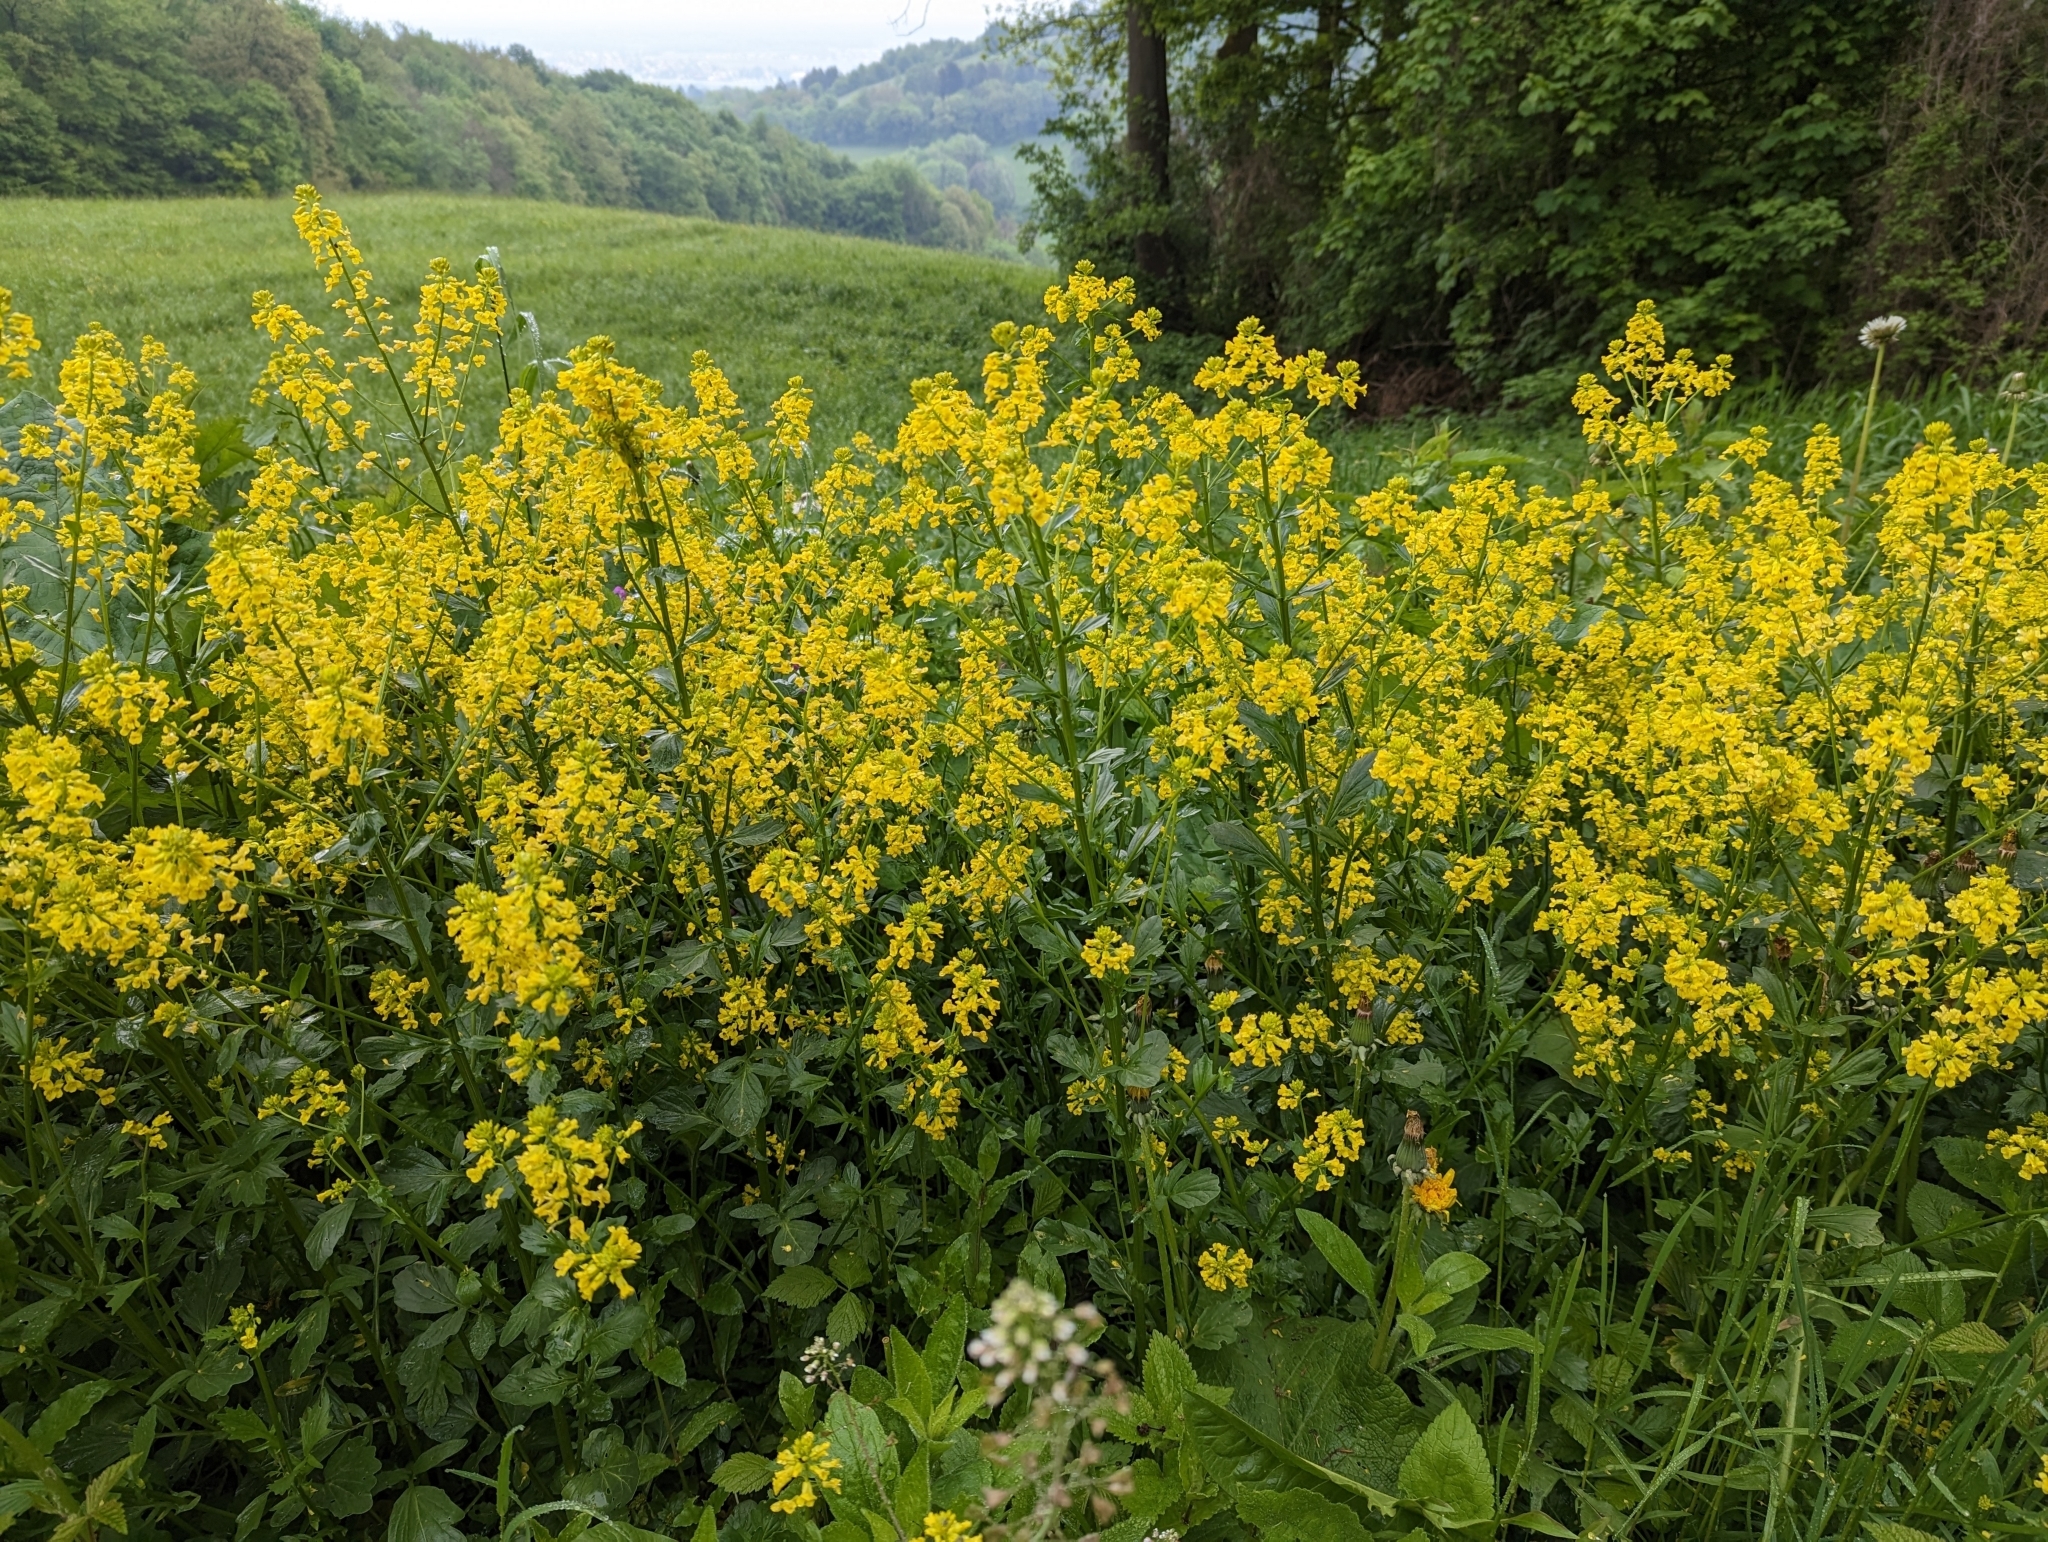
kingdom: Plantae
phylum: Tracheophyta
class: Magnoliopsida
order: Brassicales
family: Brassicaceae
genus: Barbarea
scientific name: Barbarea vulgaris
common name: Cressy-greens
